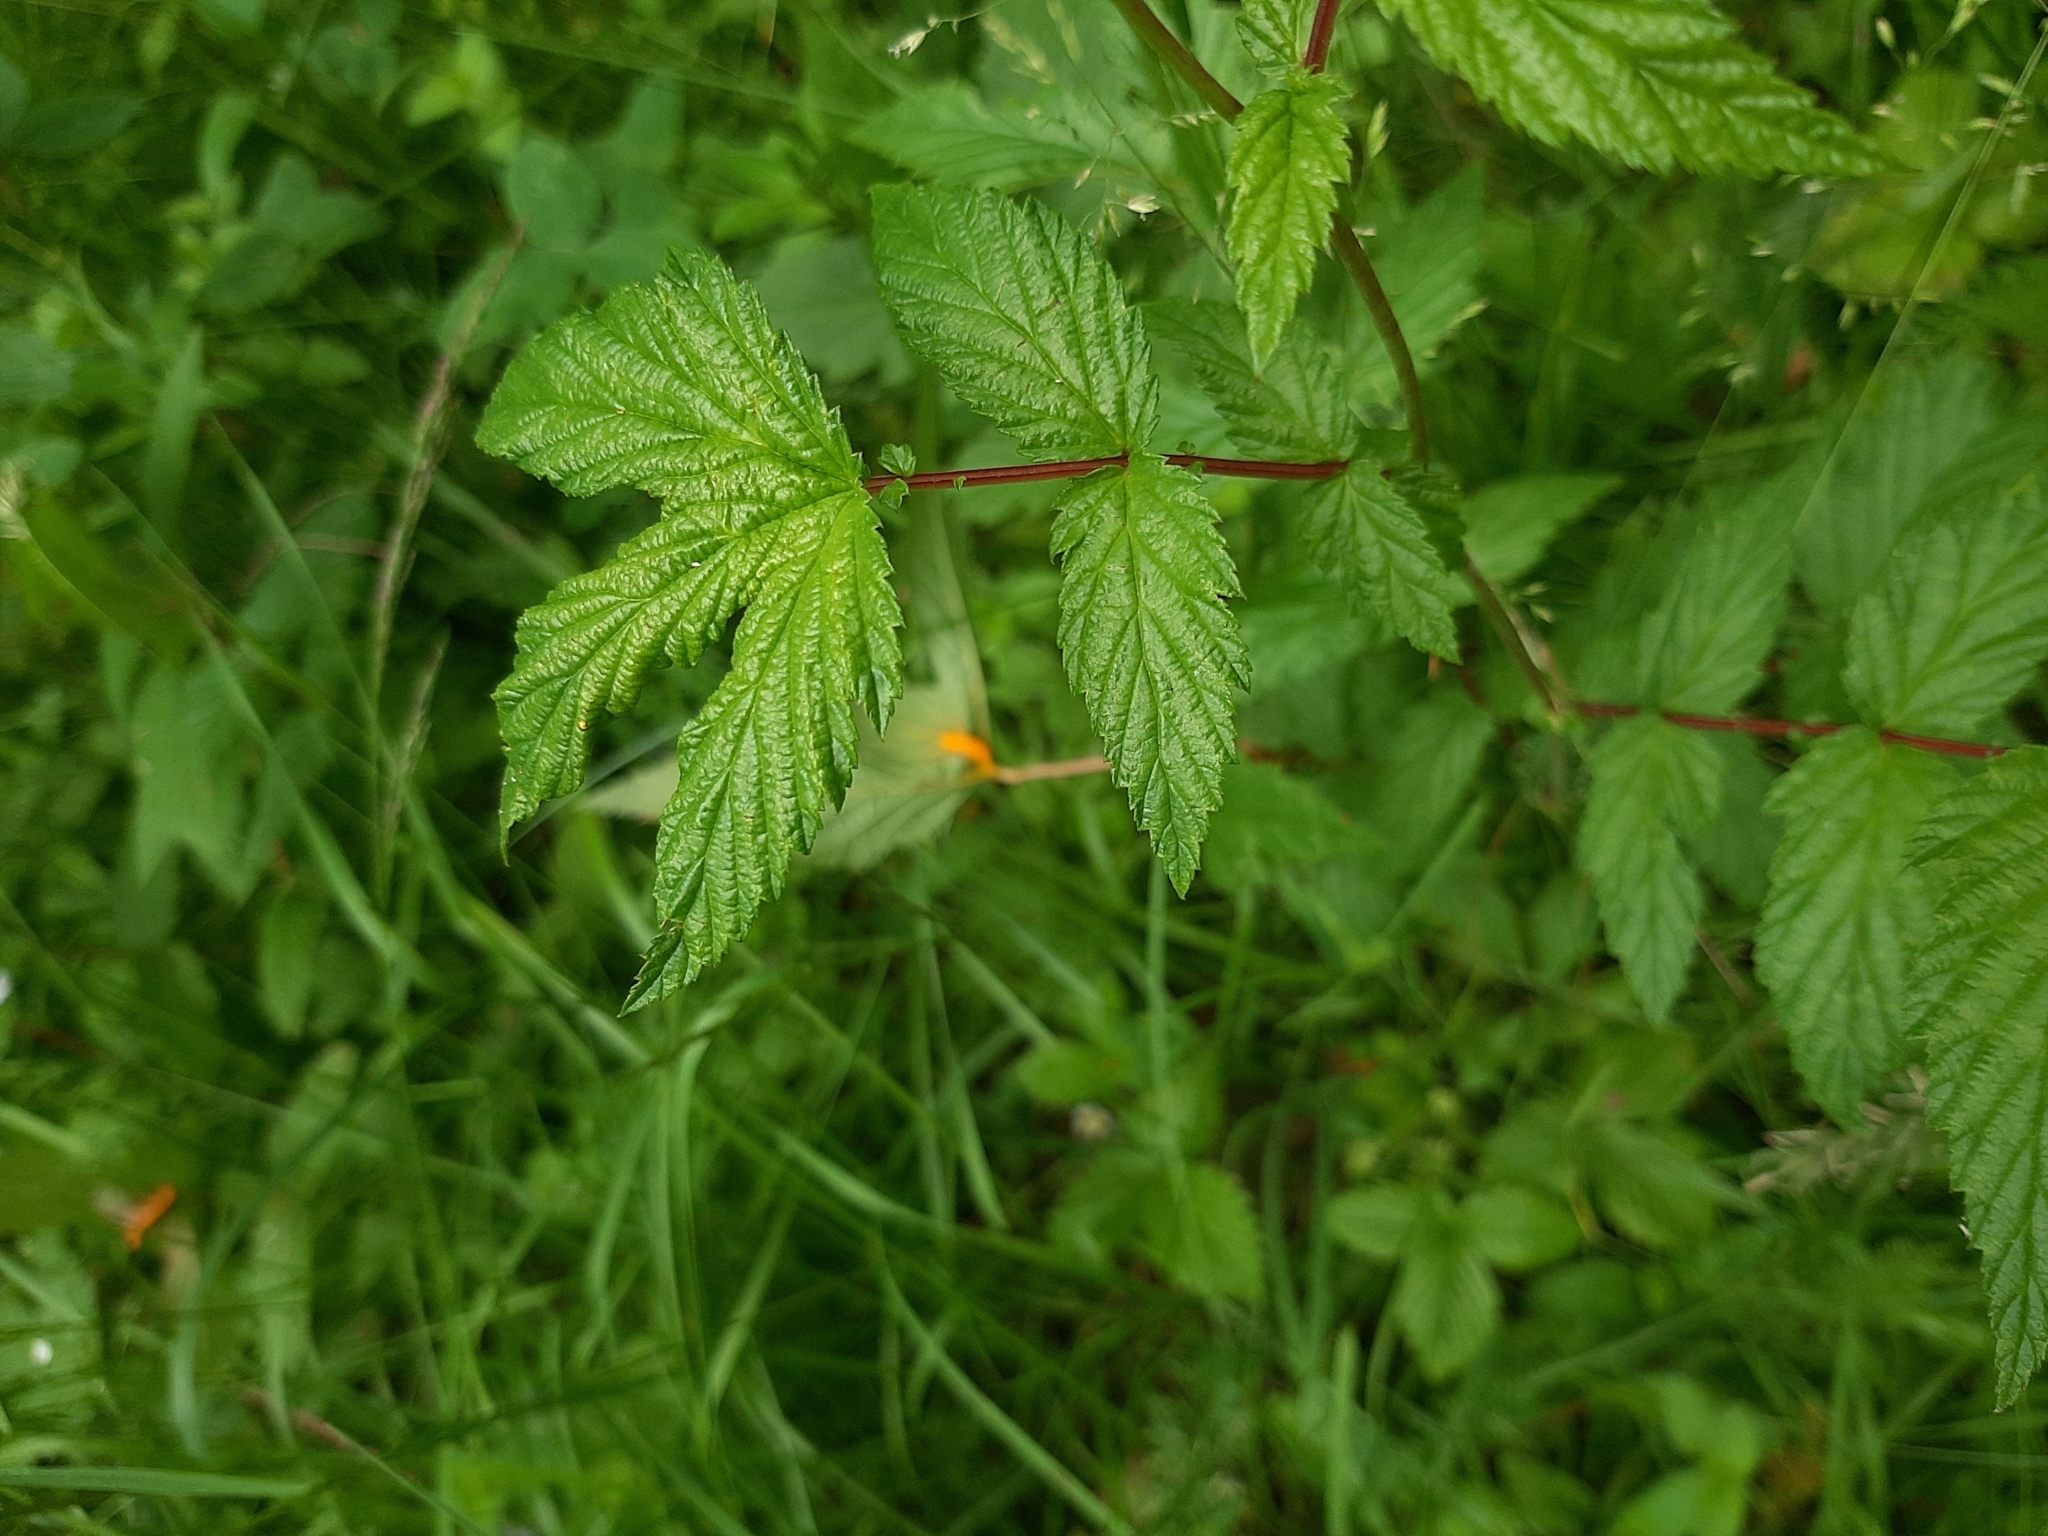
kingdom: Plantae
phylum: Tracheophyta
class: Magnoliopsida
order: Rosales
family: Rosaceae
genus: Filipendula
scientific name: Filipendula ulmaria
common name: Meadowsweet
